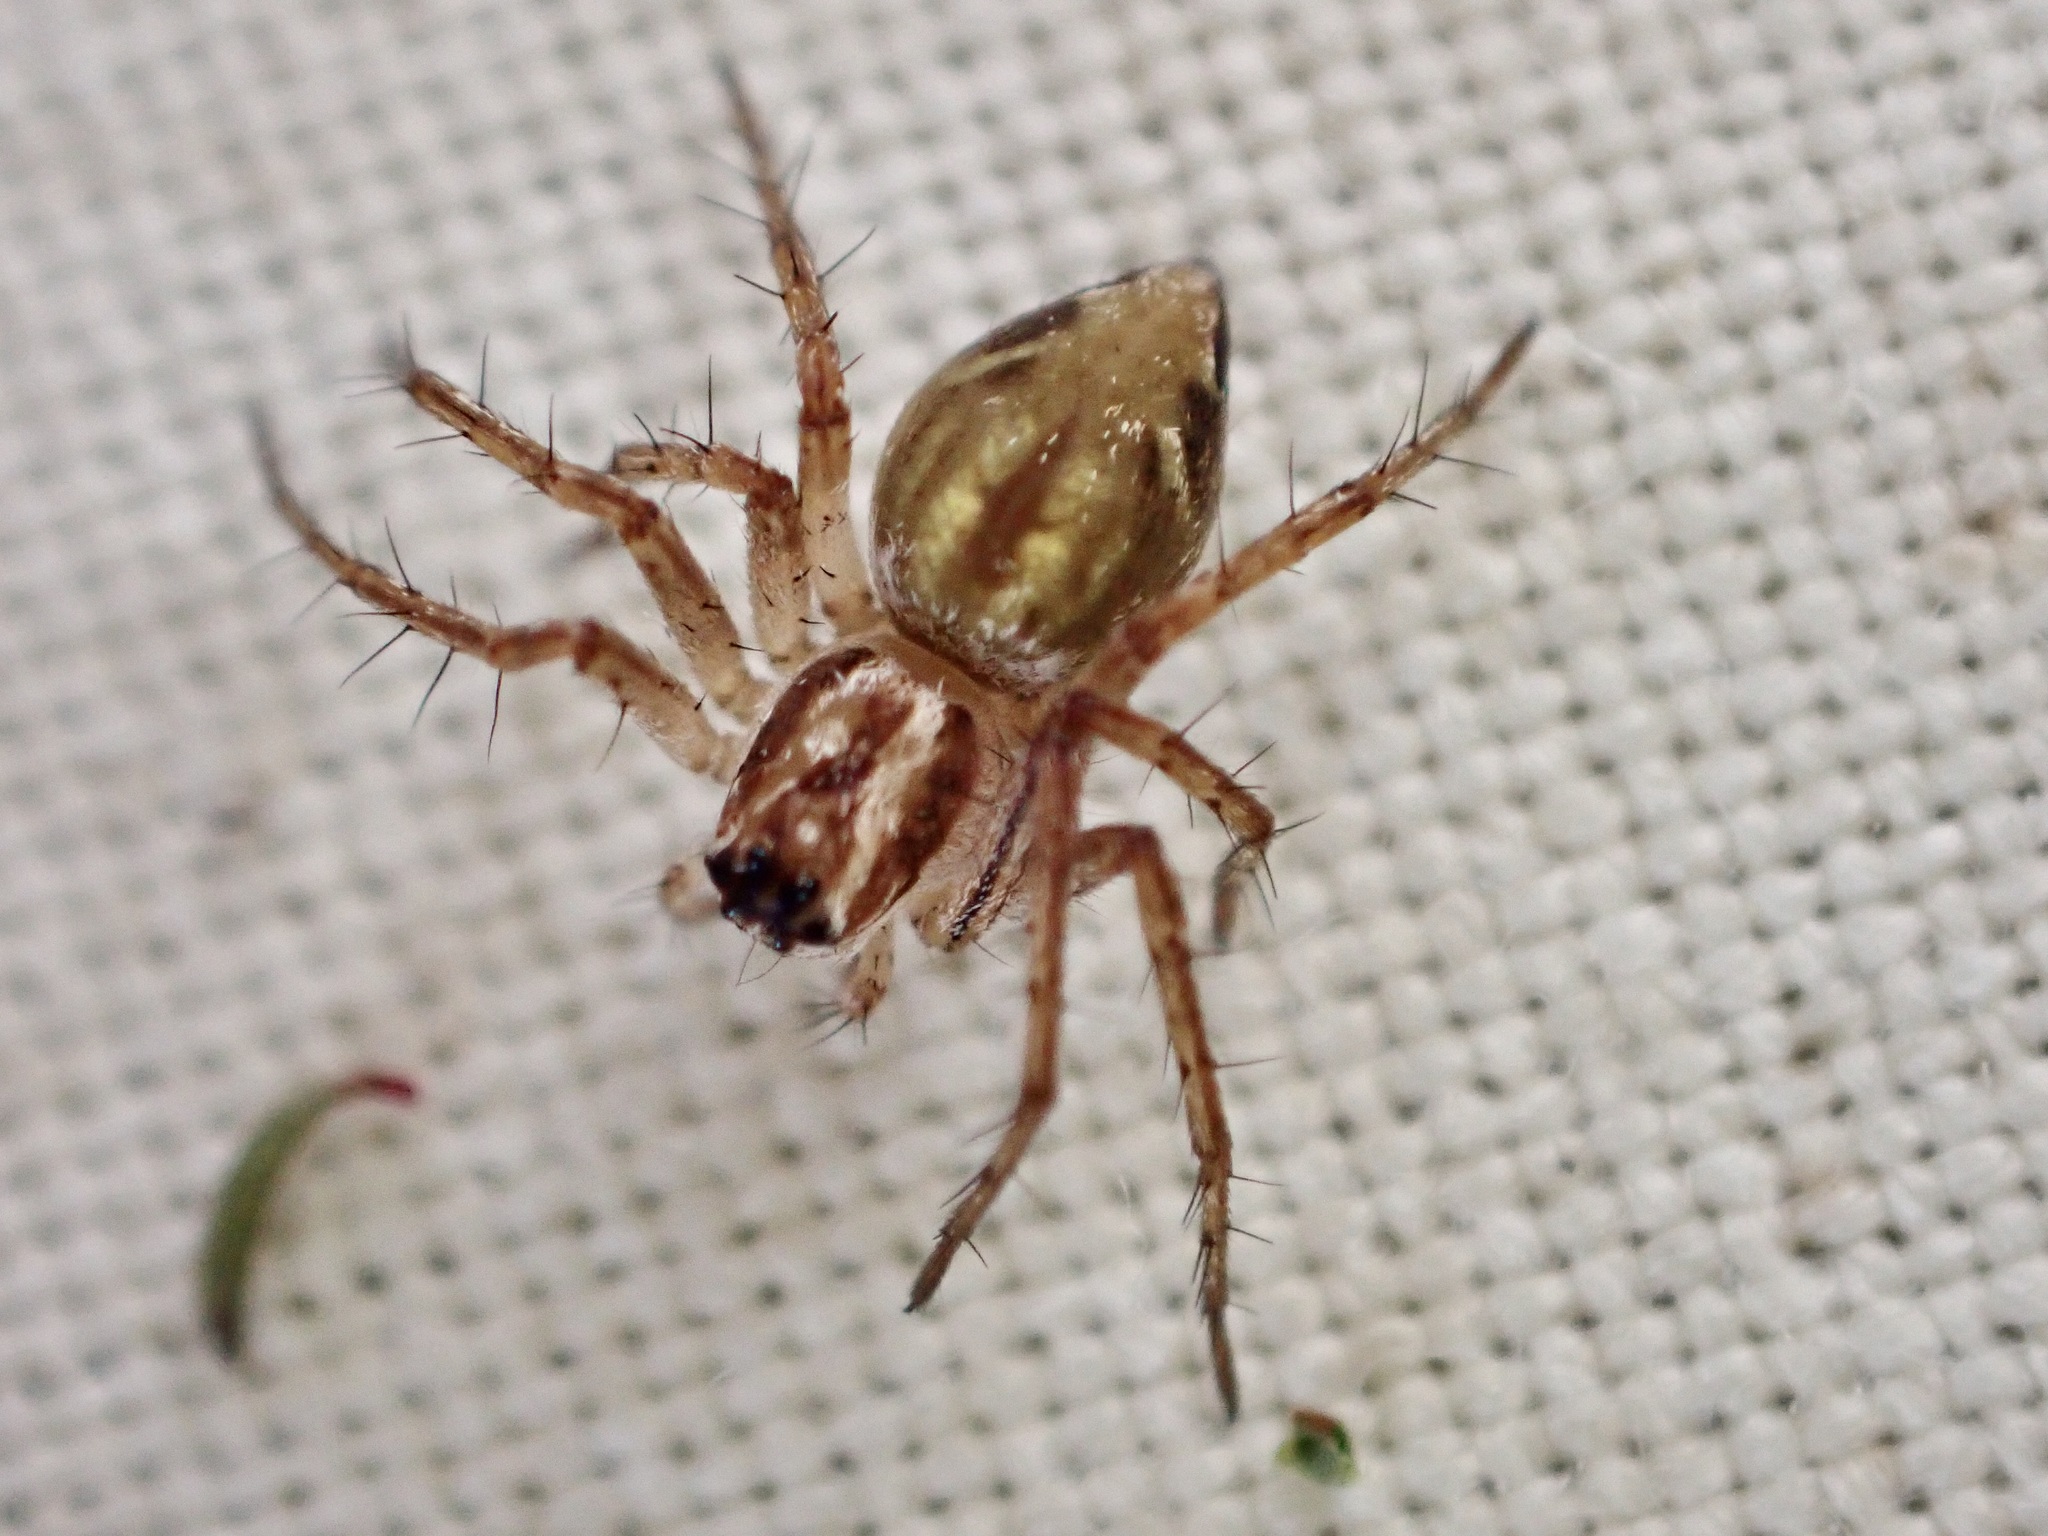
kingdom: Animalia
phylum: Arthropoda
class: Arachnida
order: Araneae
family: Oxyopidae
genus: Oxyopes
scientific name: Oxyopes gracilipes
